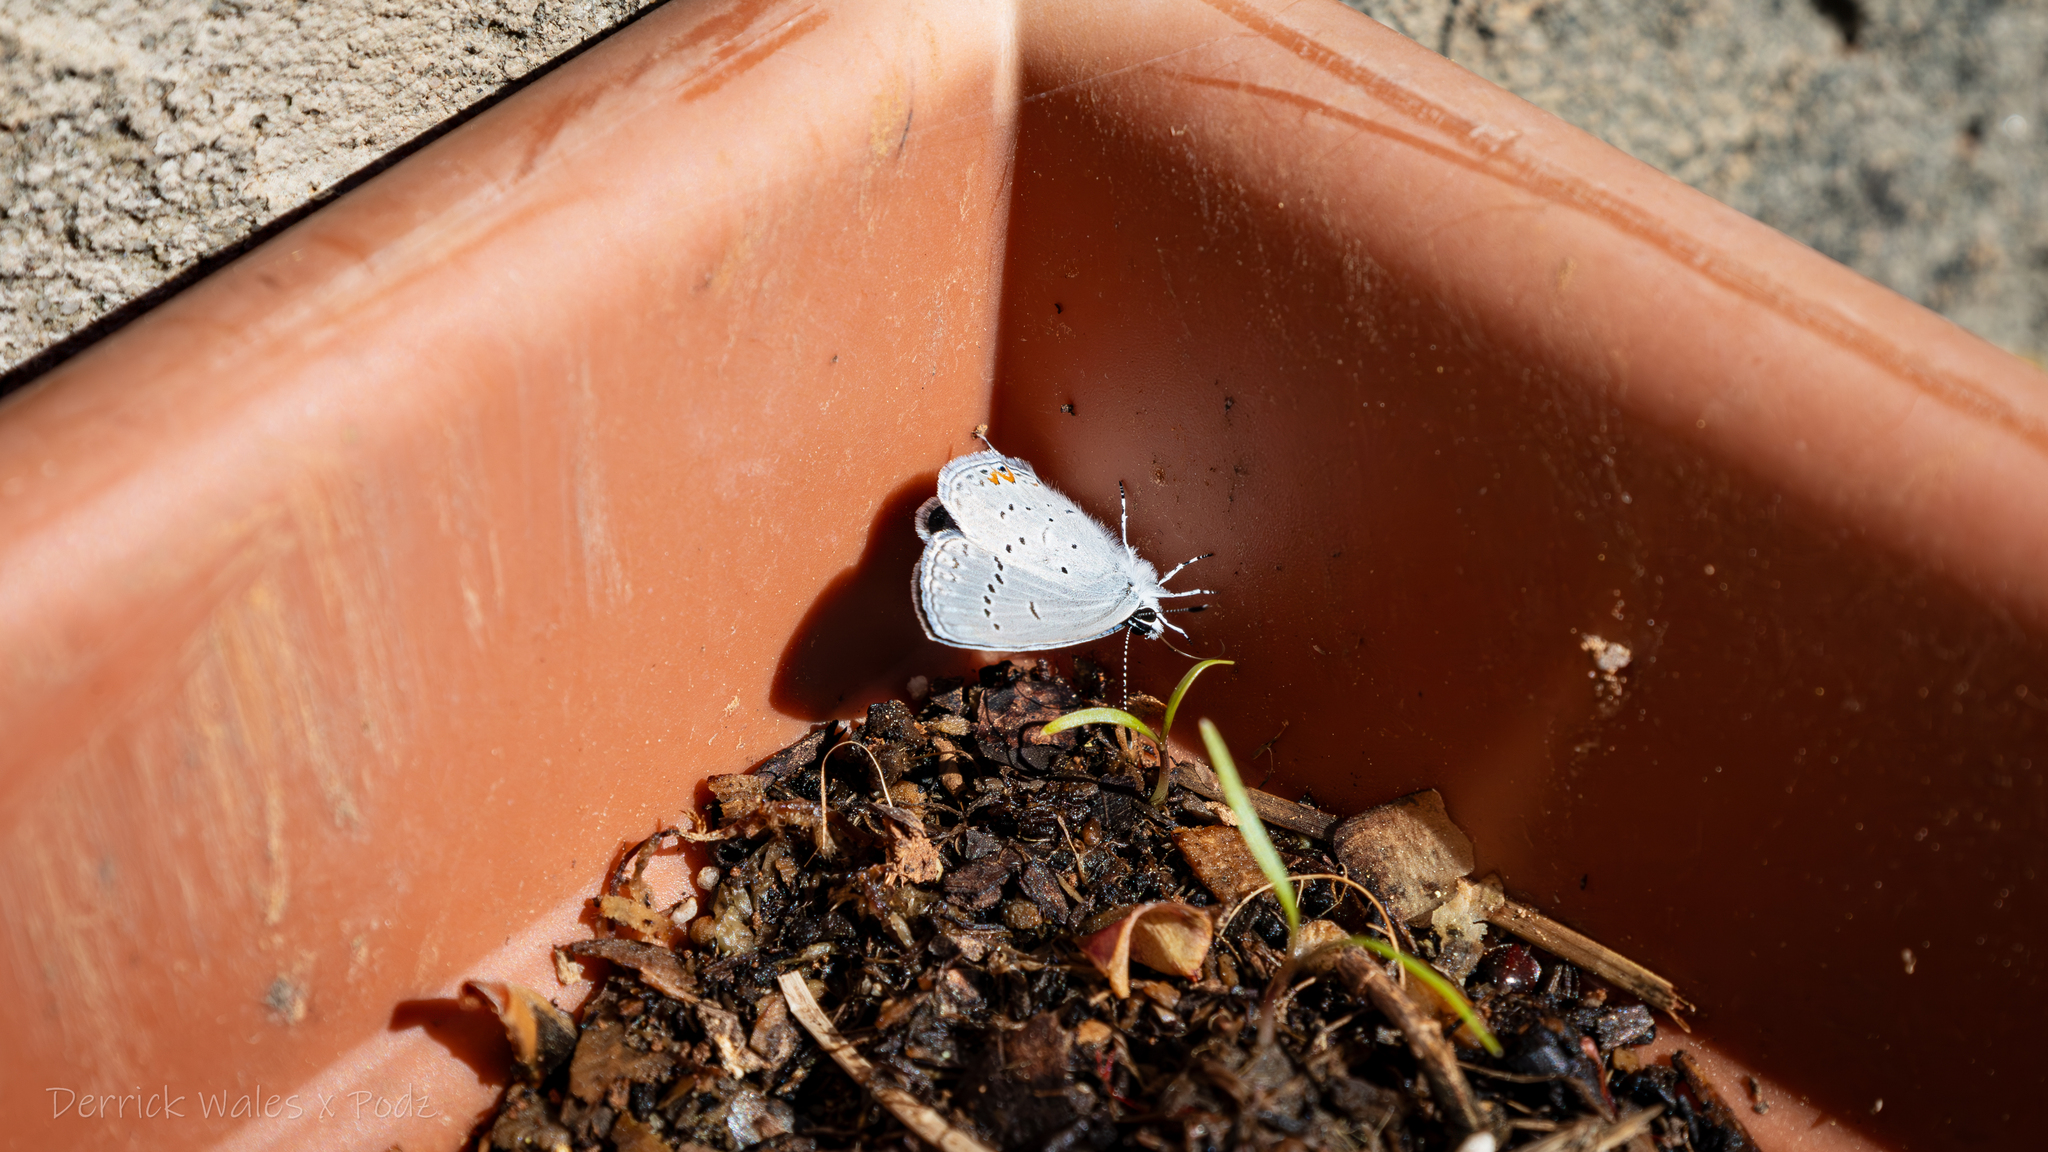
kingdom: Animalia
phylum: Arthropoda
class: Insecta
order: Lepidoptera
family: Lycaenidae
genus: Elkalyce
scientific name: Elkalyce comyntas
